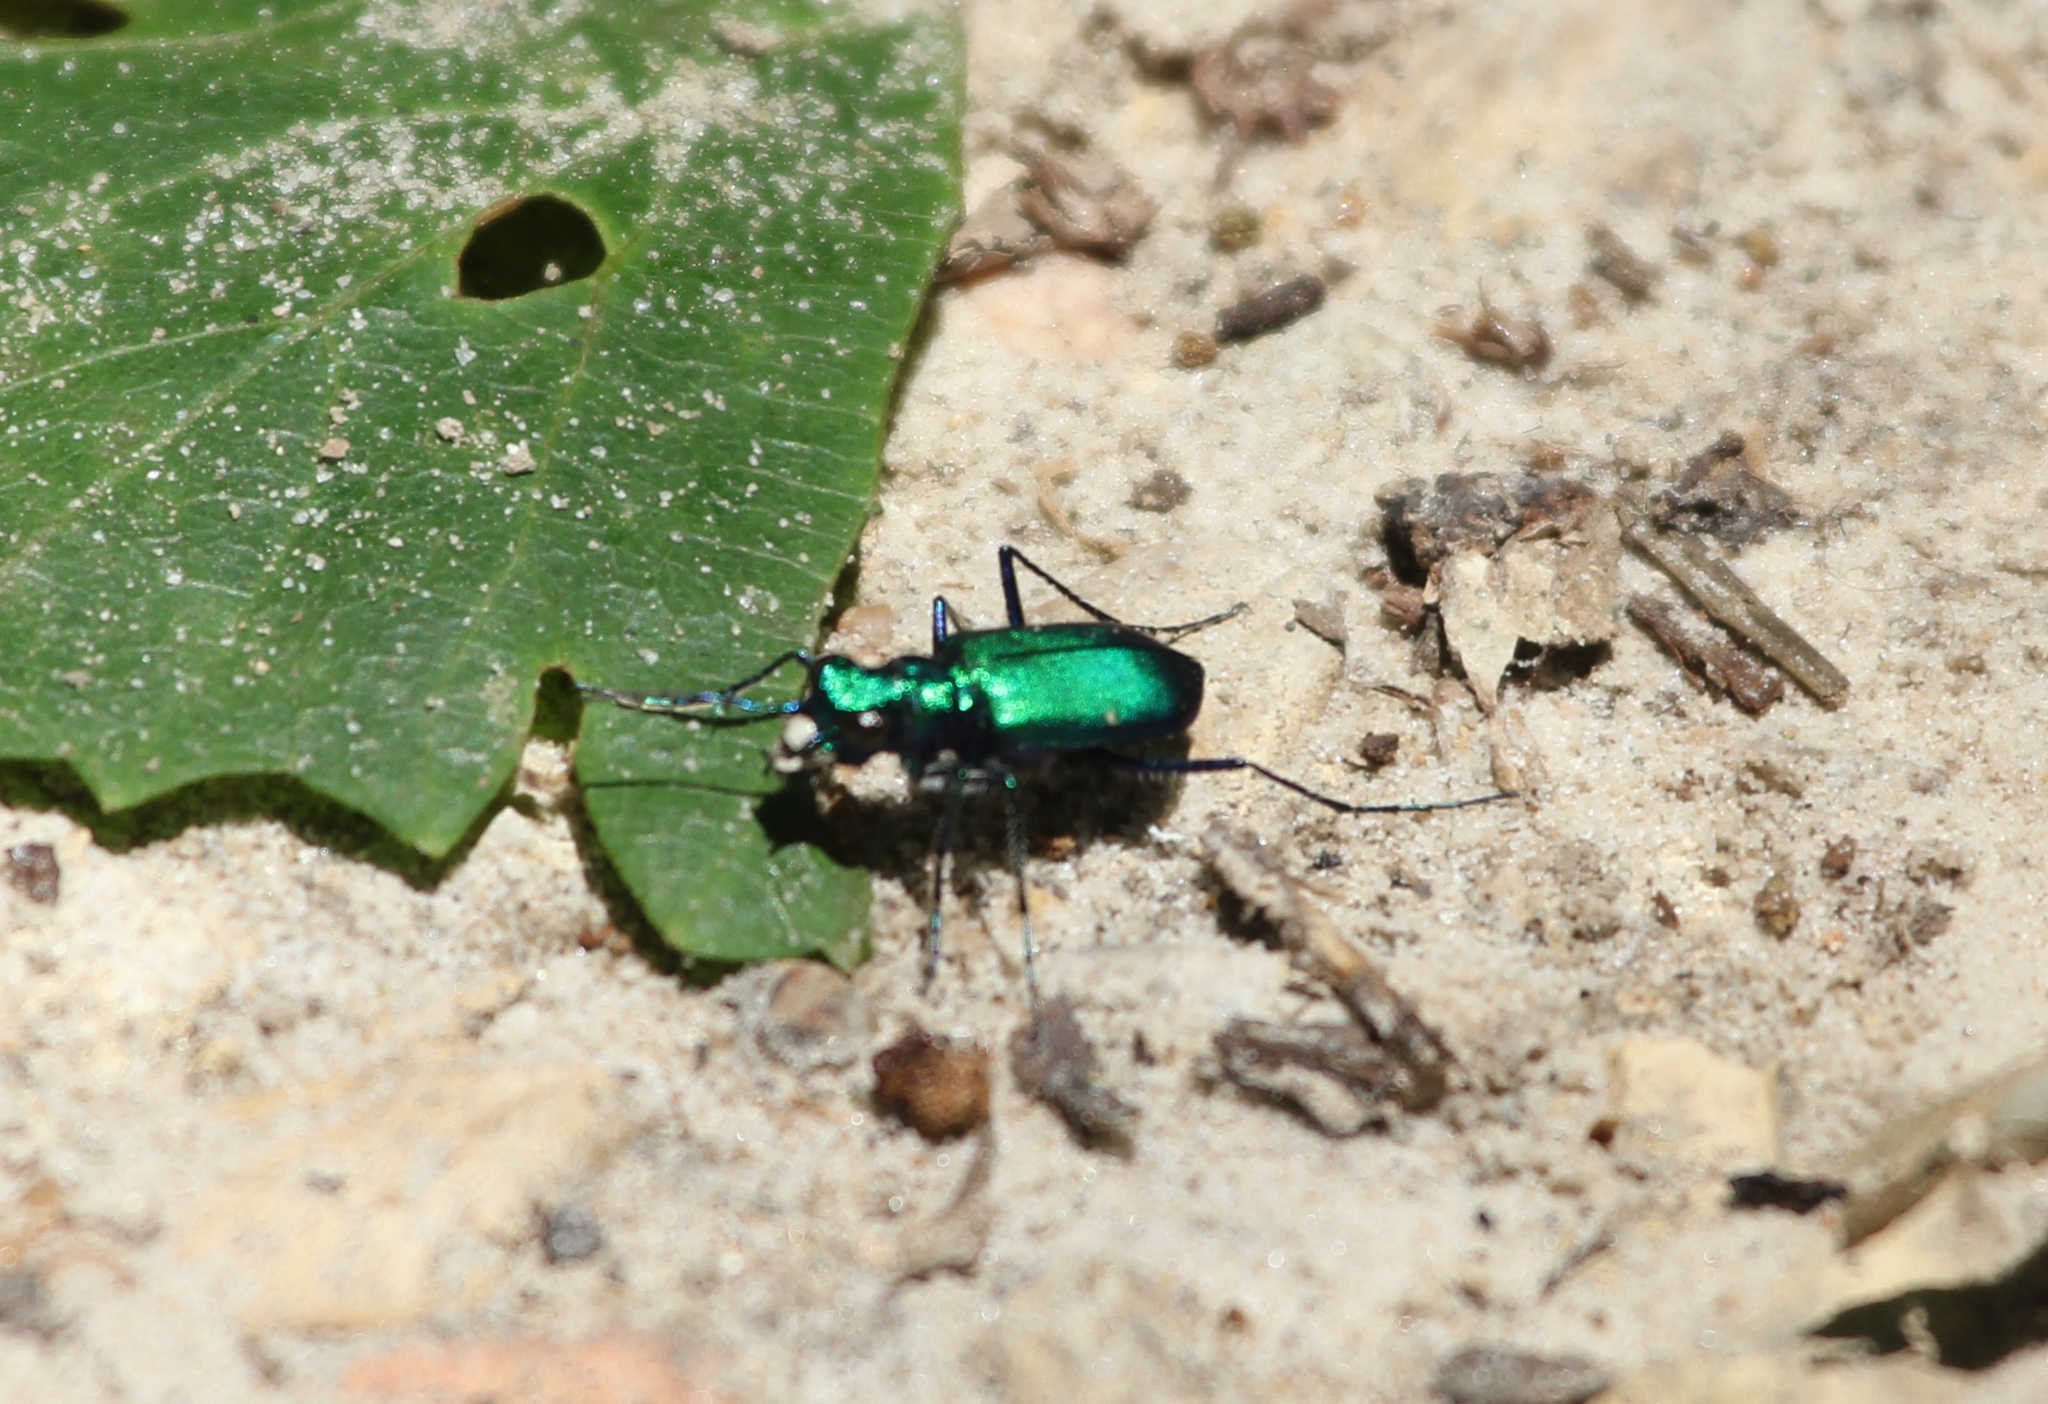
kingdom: Animalia
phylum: Arthropoda
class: Insecta
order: Coleoptera
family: Carabidae
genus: Cicindela
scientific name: Cicindela sexguttata
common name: Six-spotted tiger beetle
